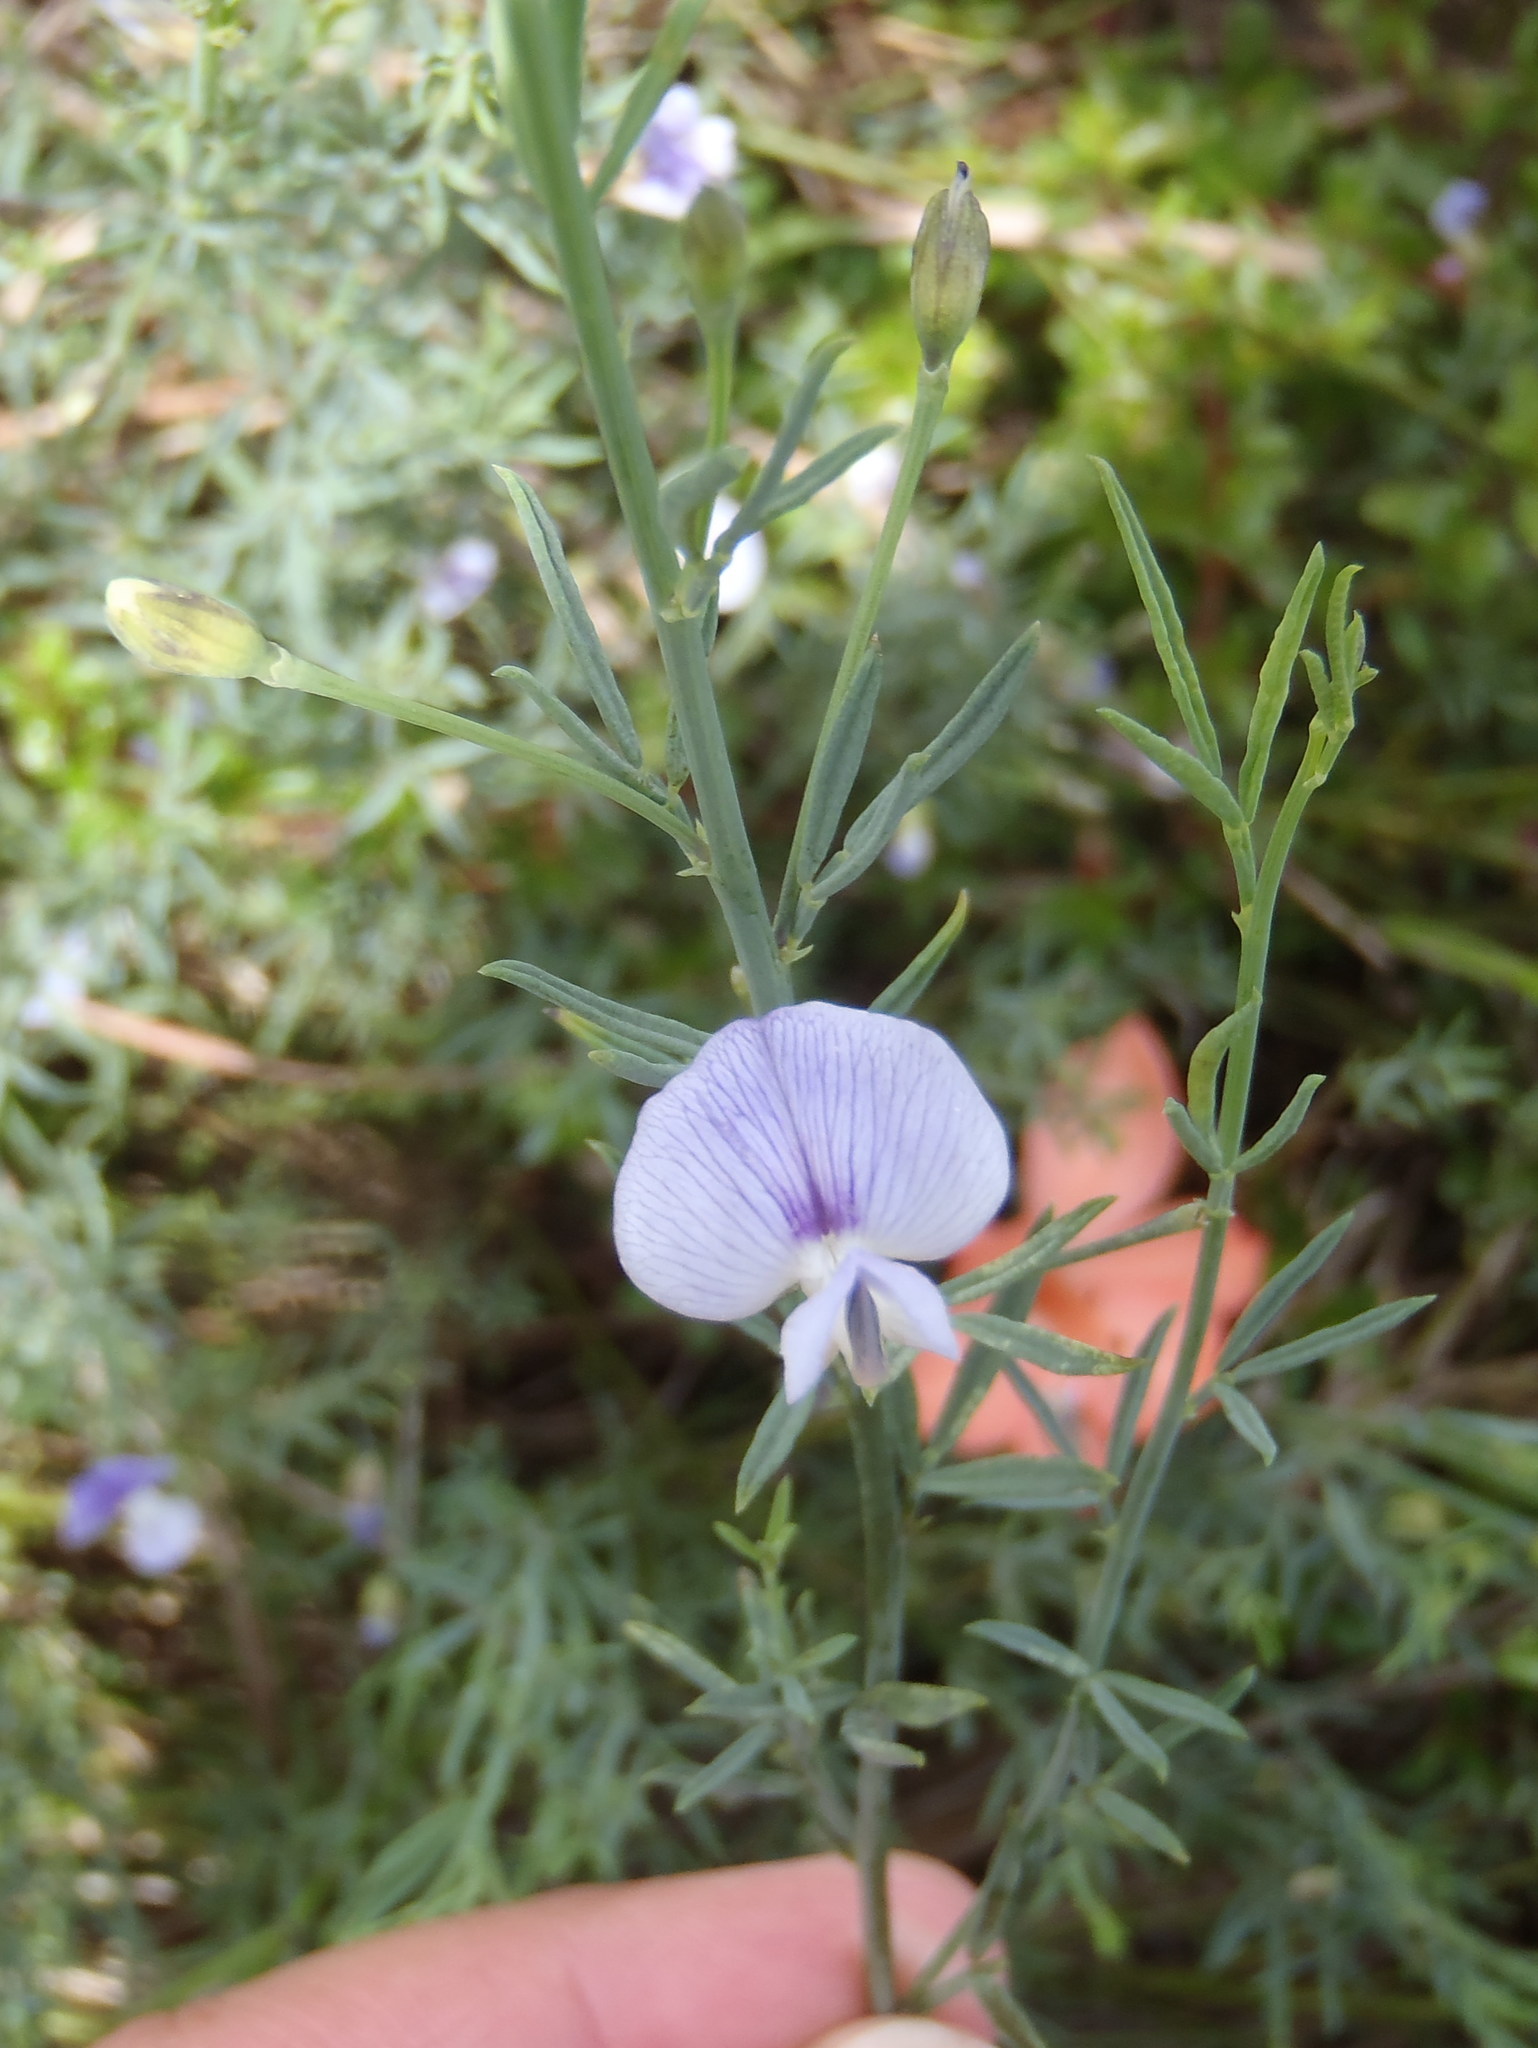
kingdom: Plantae
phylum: Tracheophyta
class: Magnoliopsida
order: Fabales
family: Fabaceae
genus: Psoralea
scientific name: Psoralea triflora
